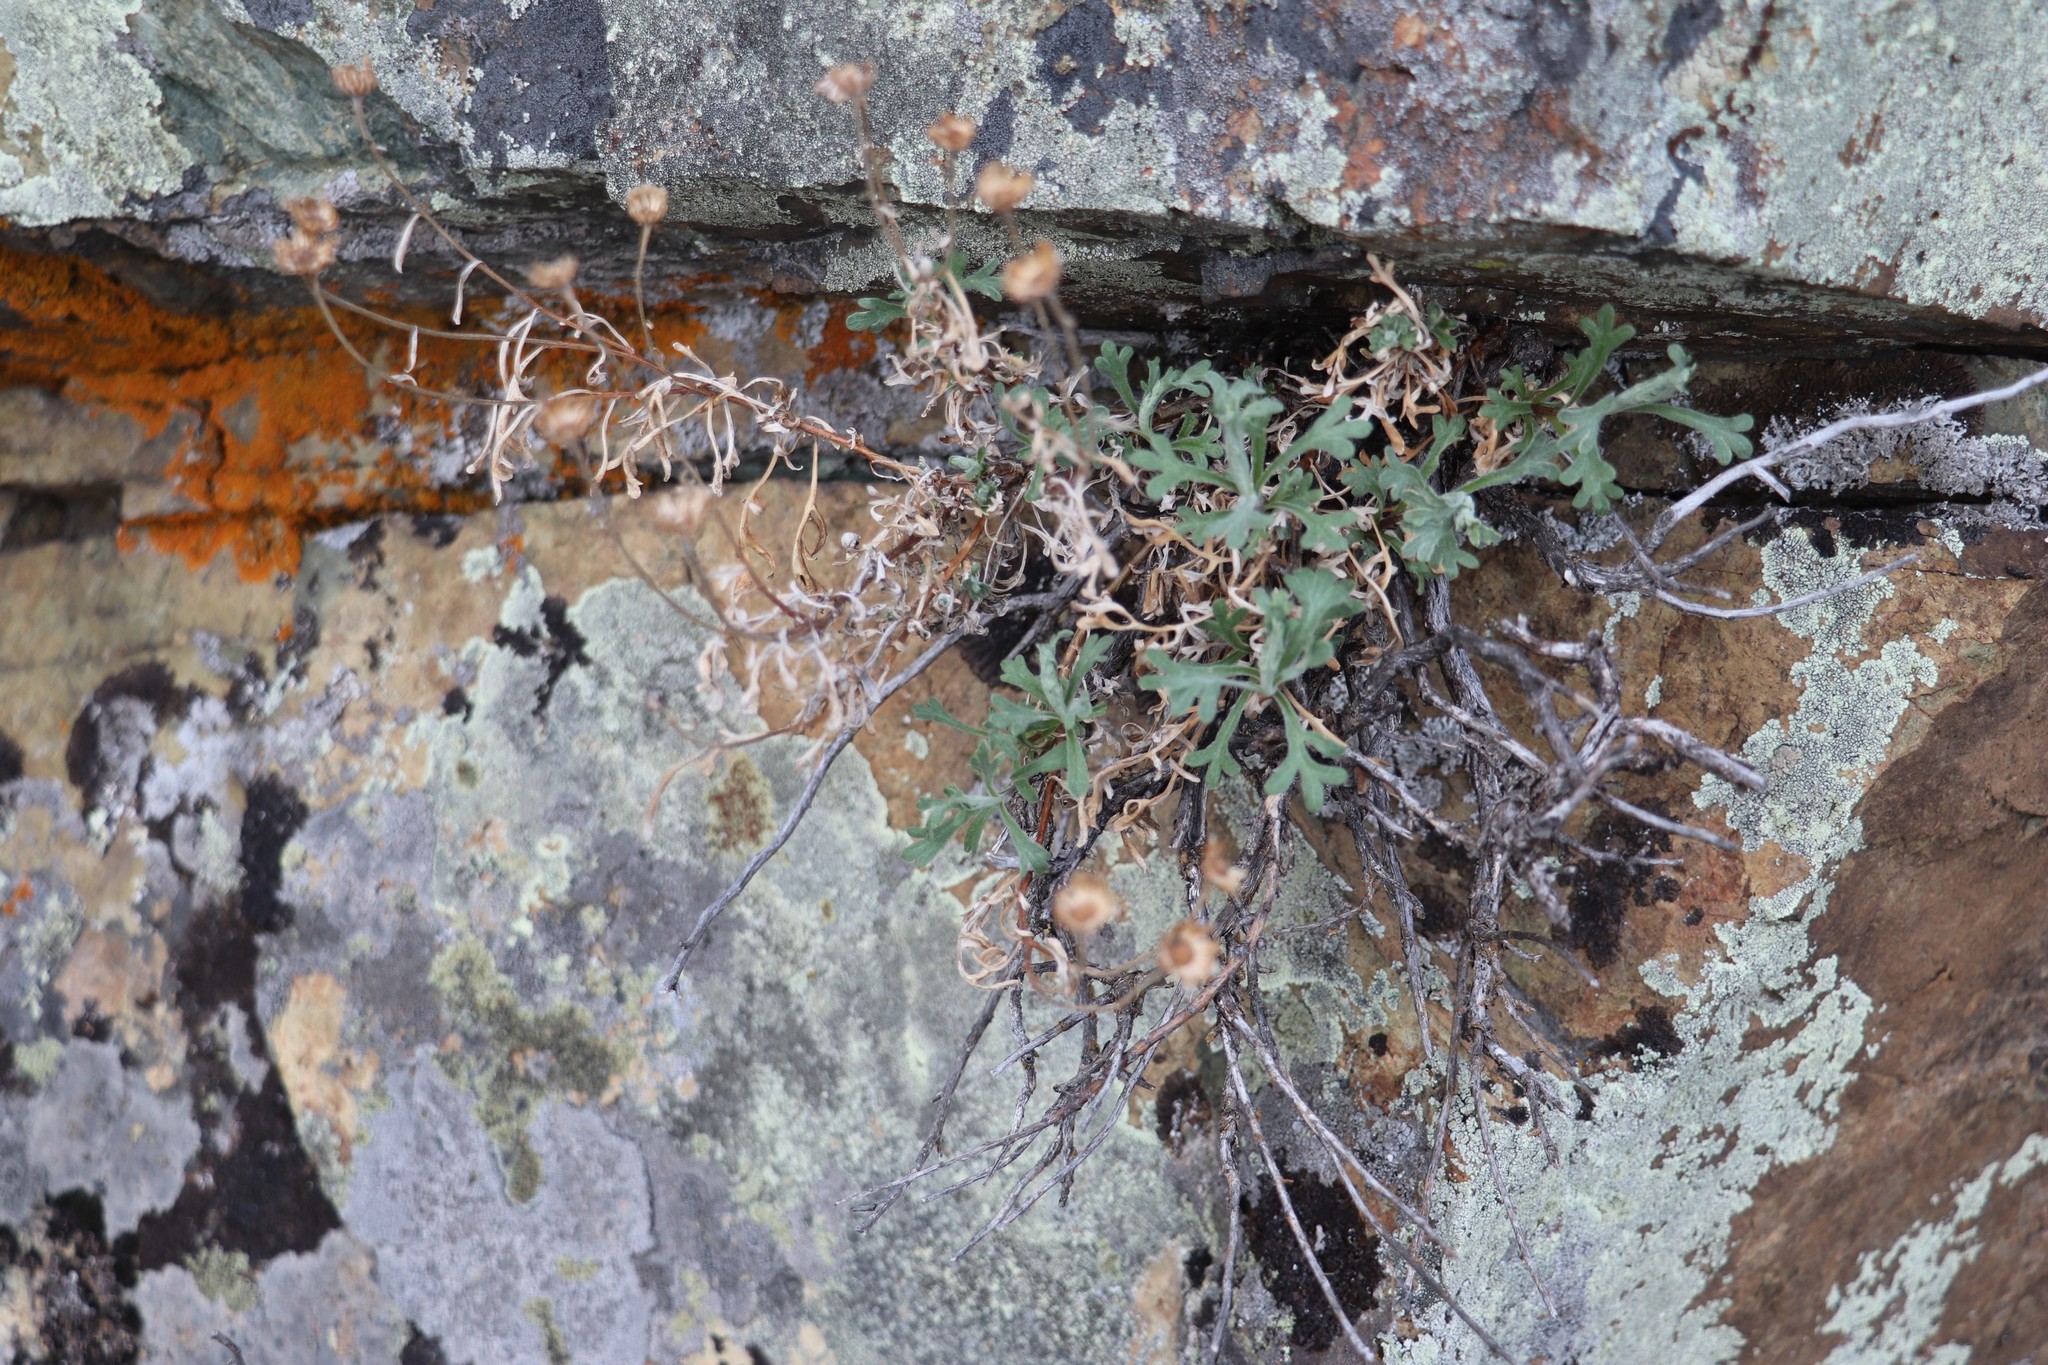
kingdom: Plantae
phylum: Tracheophyta
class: Magnoliopsida
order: Asterales
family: Asteraceae
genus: Chrysanthemum
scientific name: Chrysanthemum sinuatum
